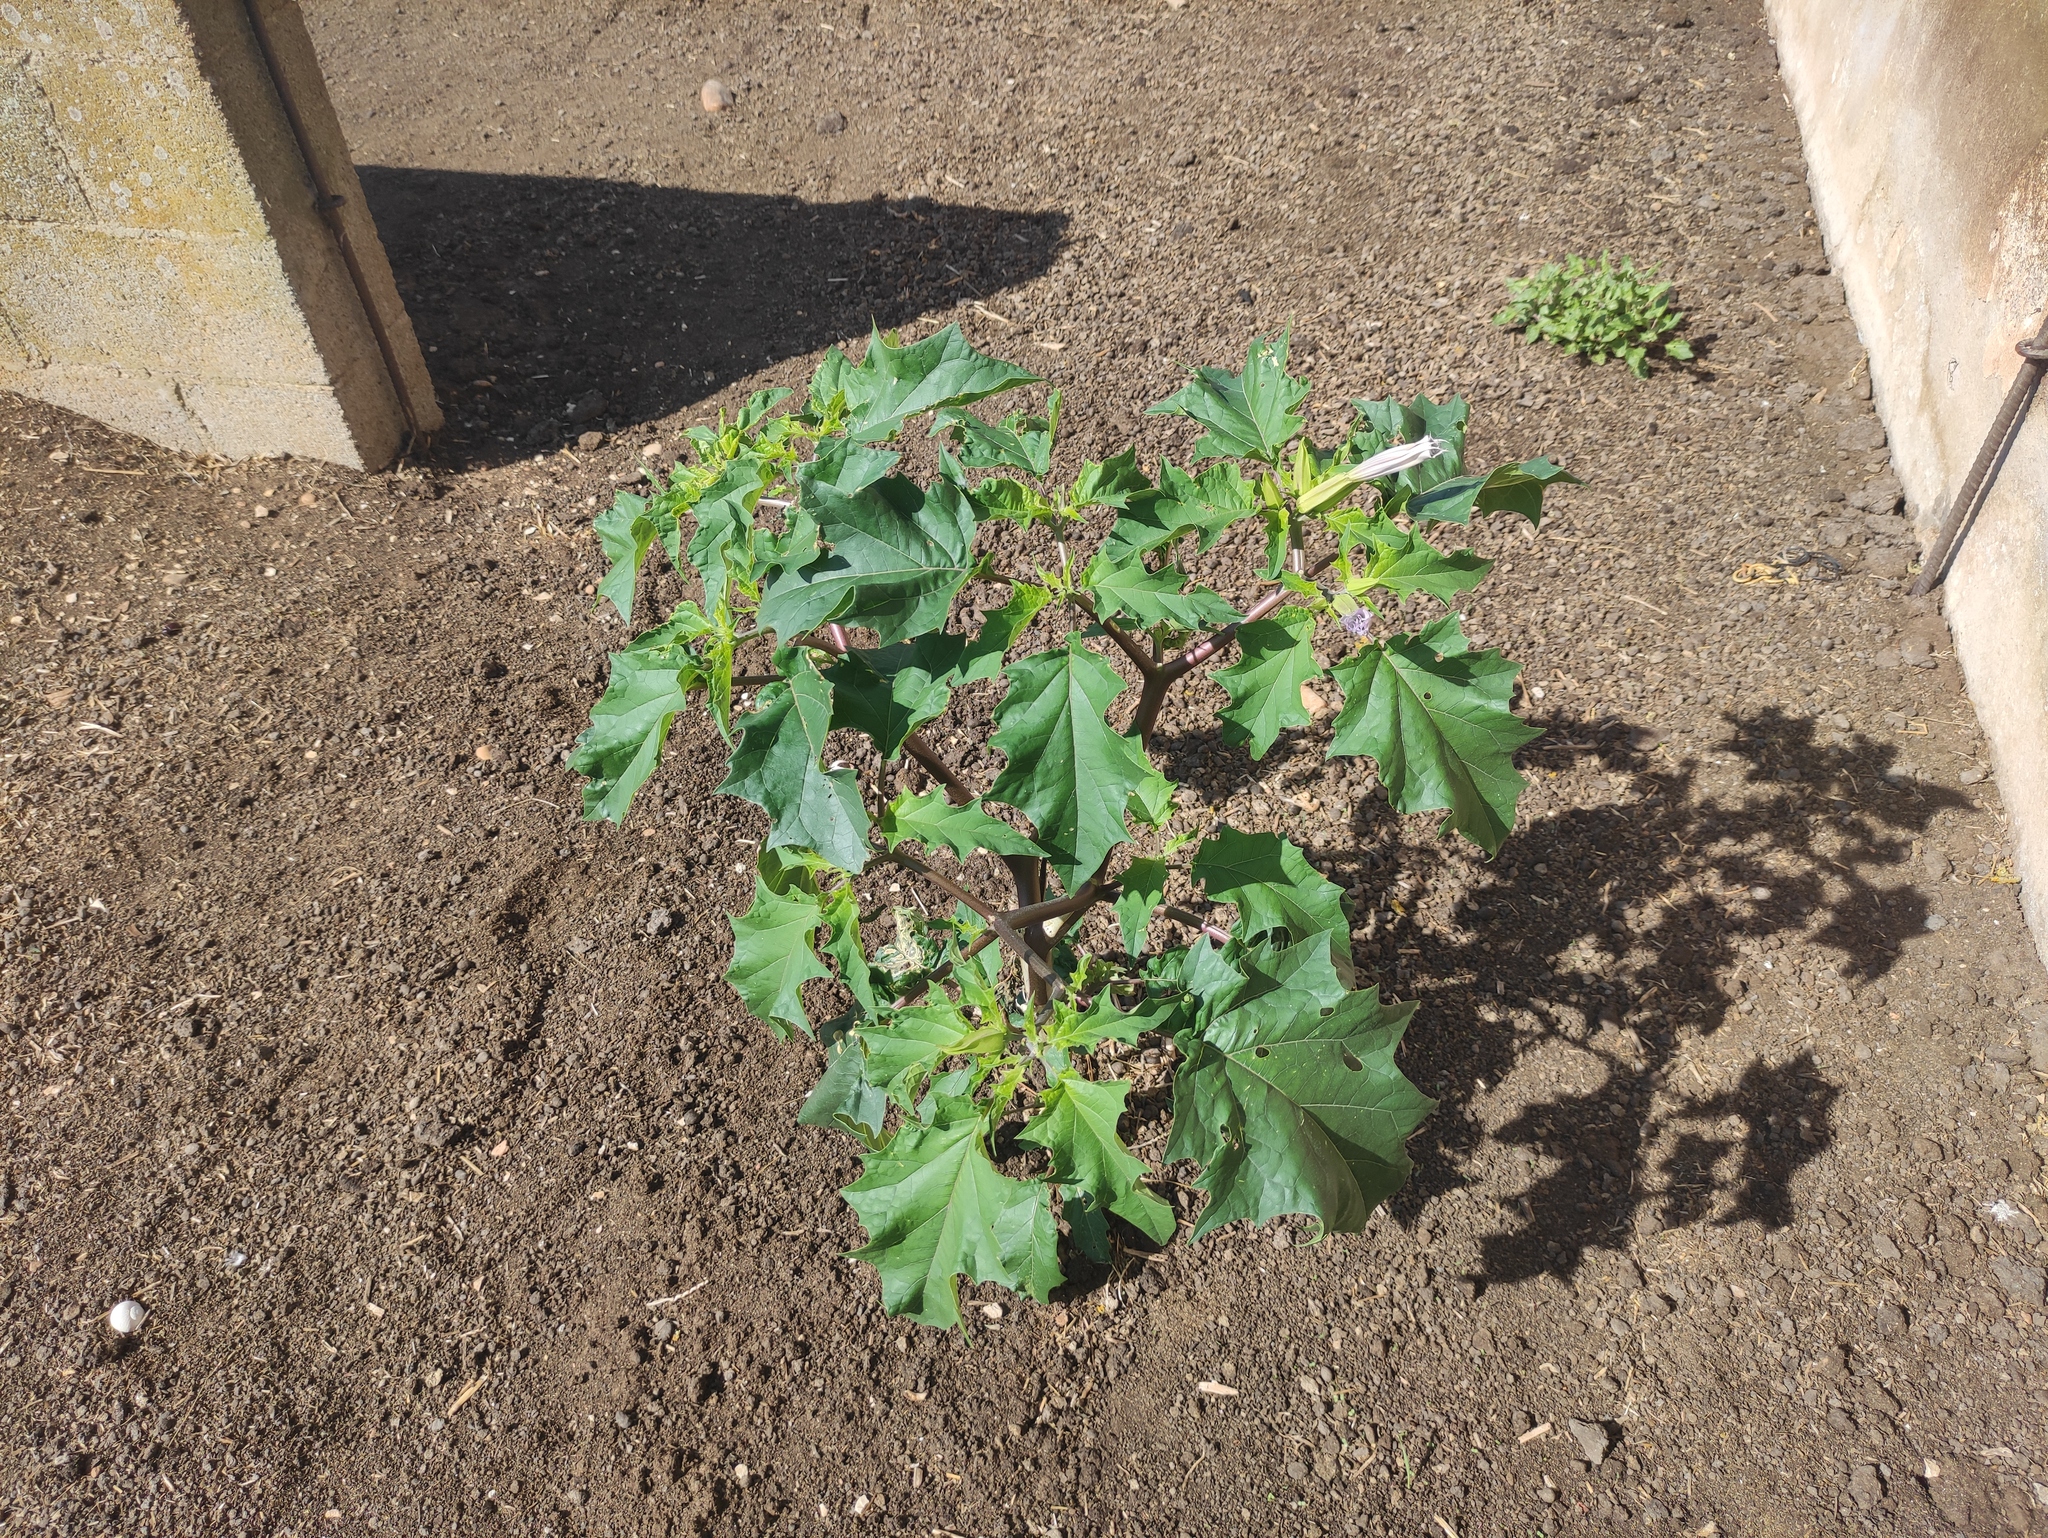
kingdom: Plantae
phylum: Tracheophyta
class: Magnoliopsida
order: Solanales
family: Solanaceae
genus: Datura
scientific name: Datura stramonium
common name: Thorn-apple
